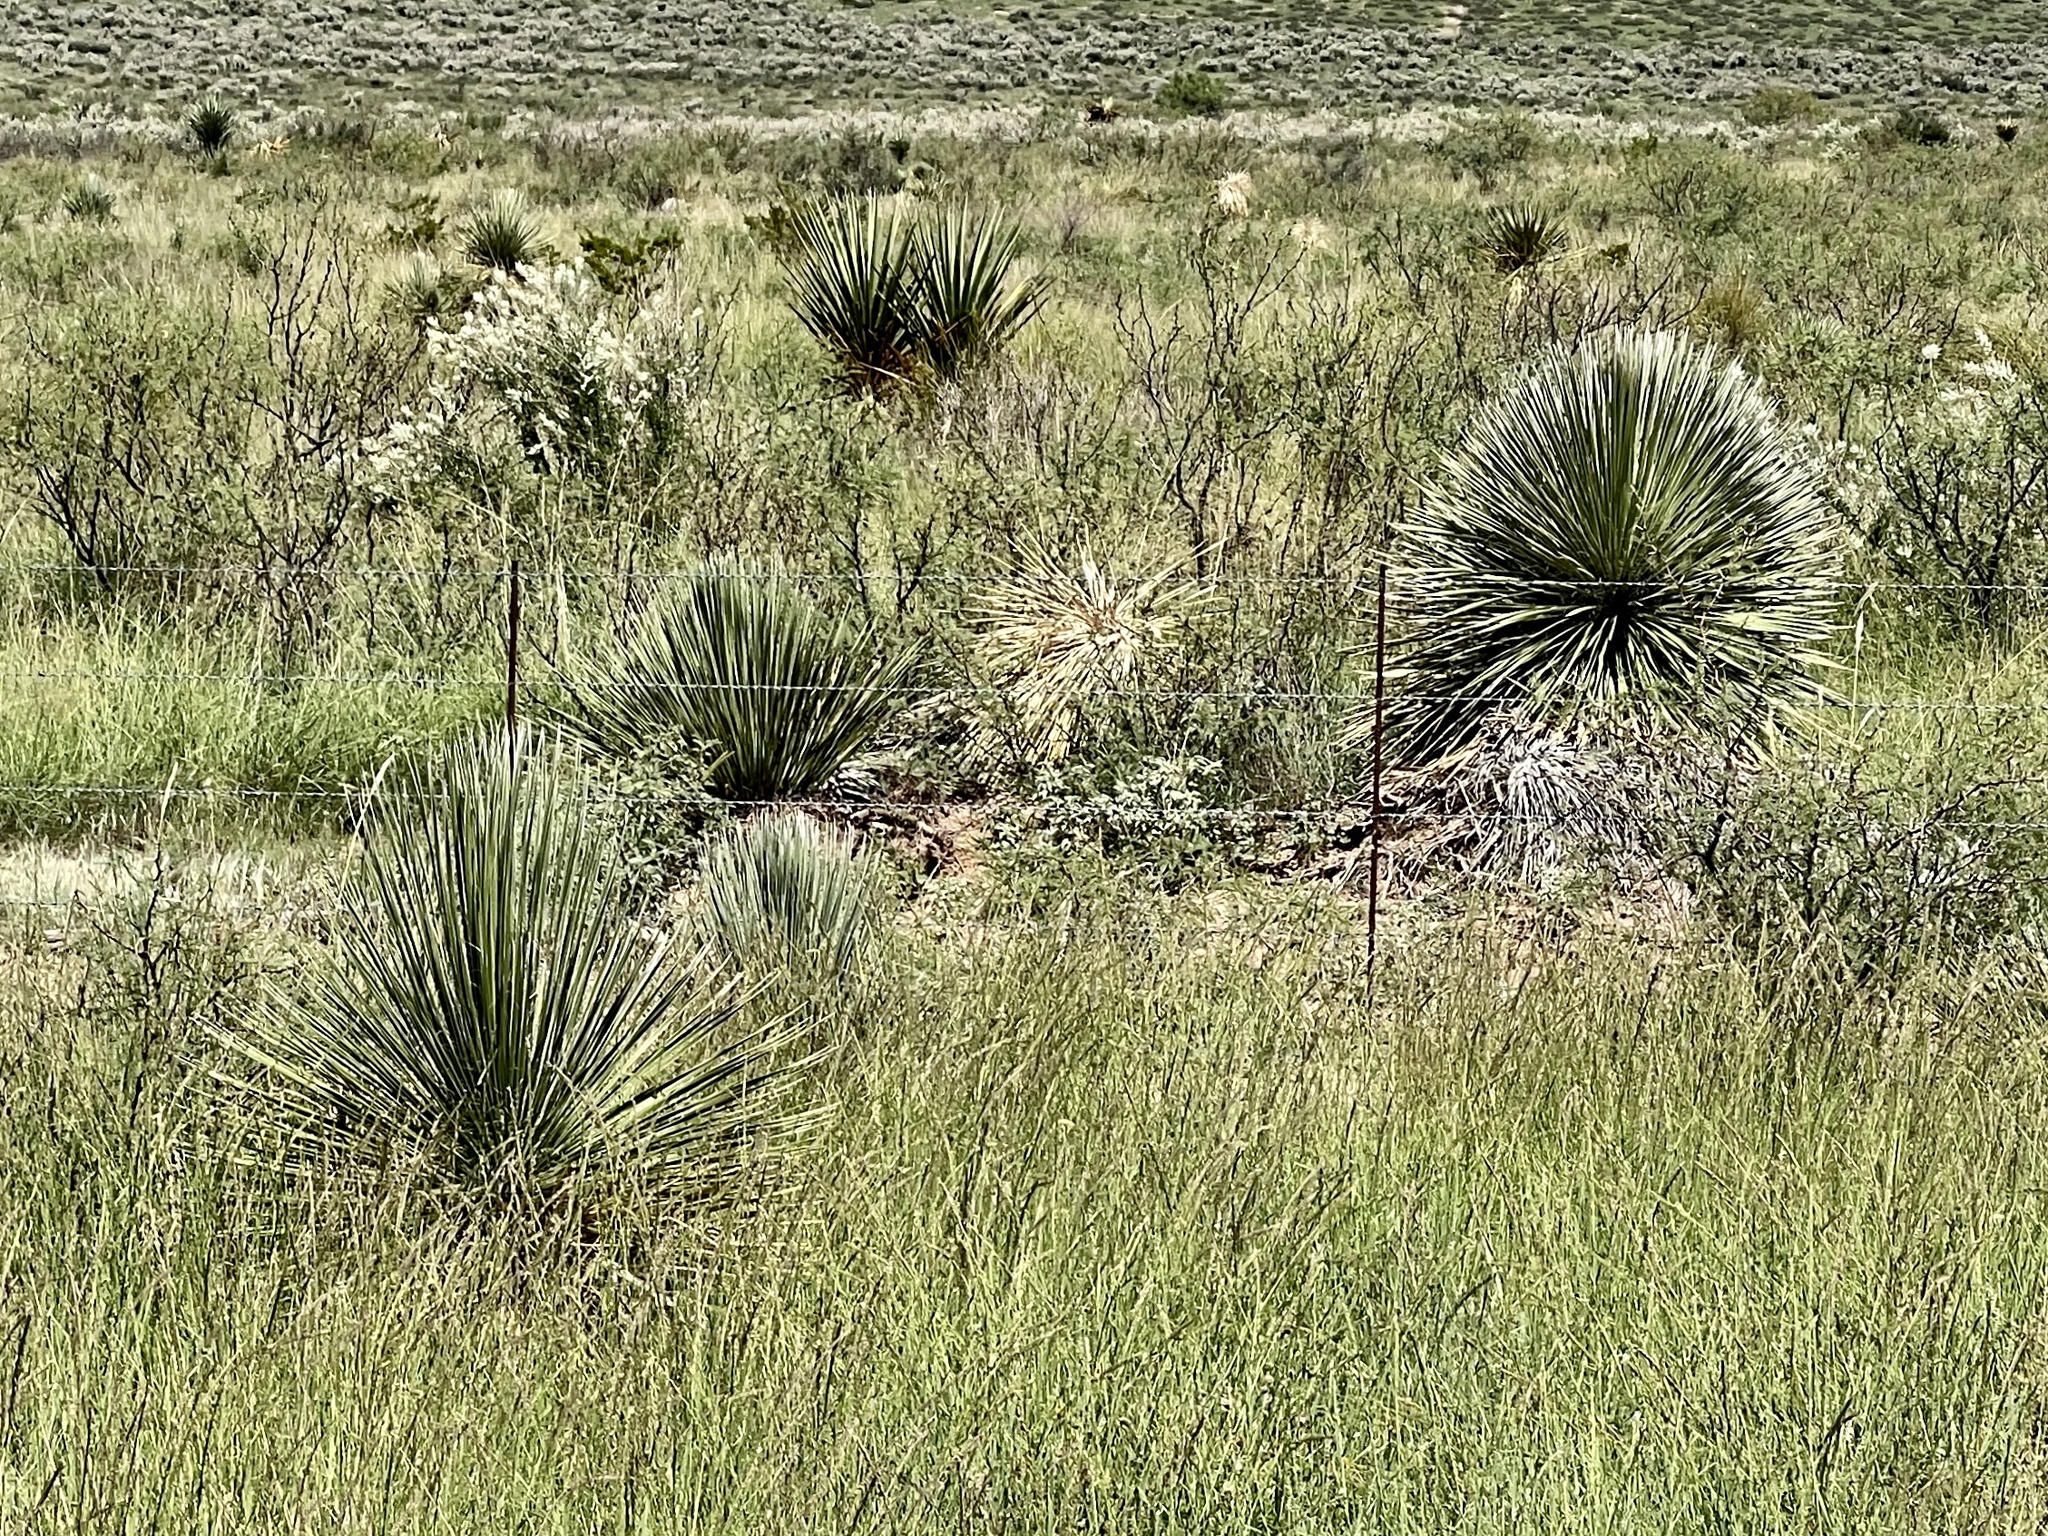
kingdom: Plantae
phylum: Tracheophyta
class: Liliopsida
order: Asparagales
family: Asparagaceae
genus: Yucca
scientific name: Yucca elata
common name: Palmella
